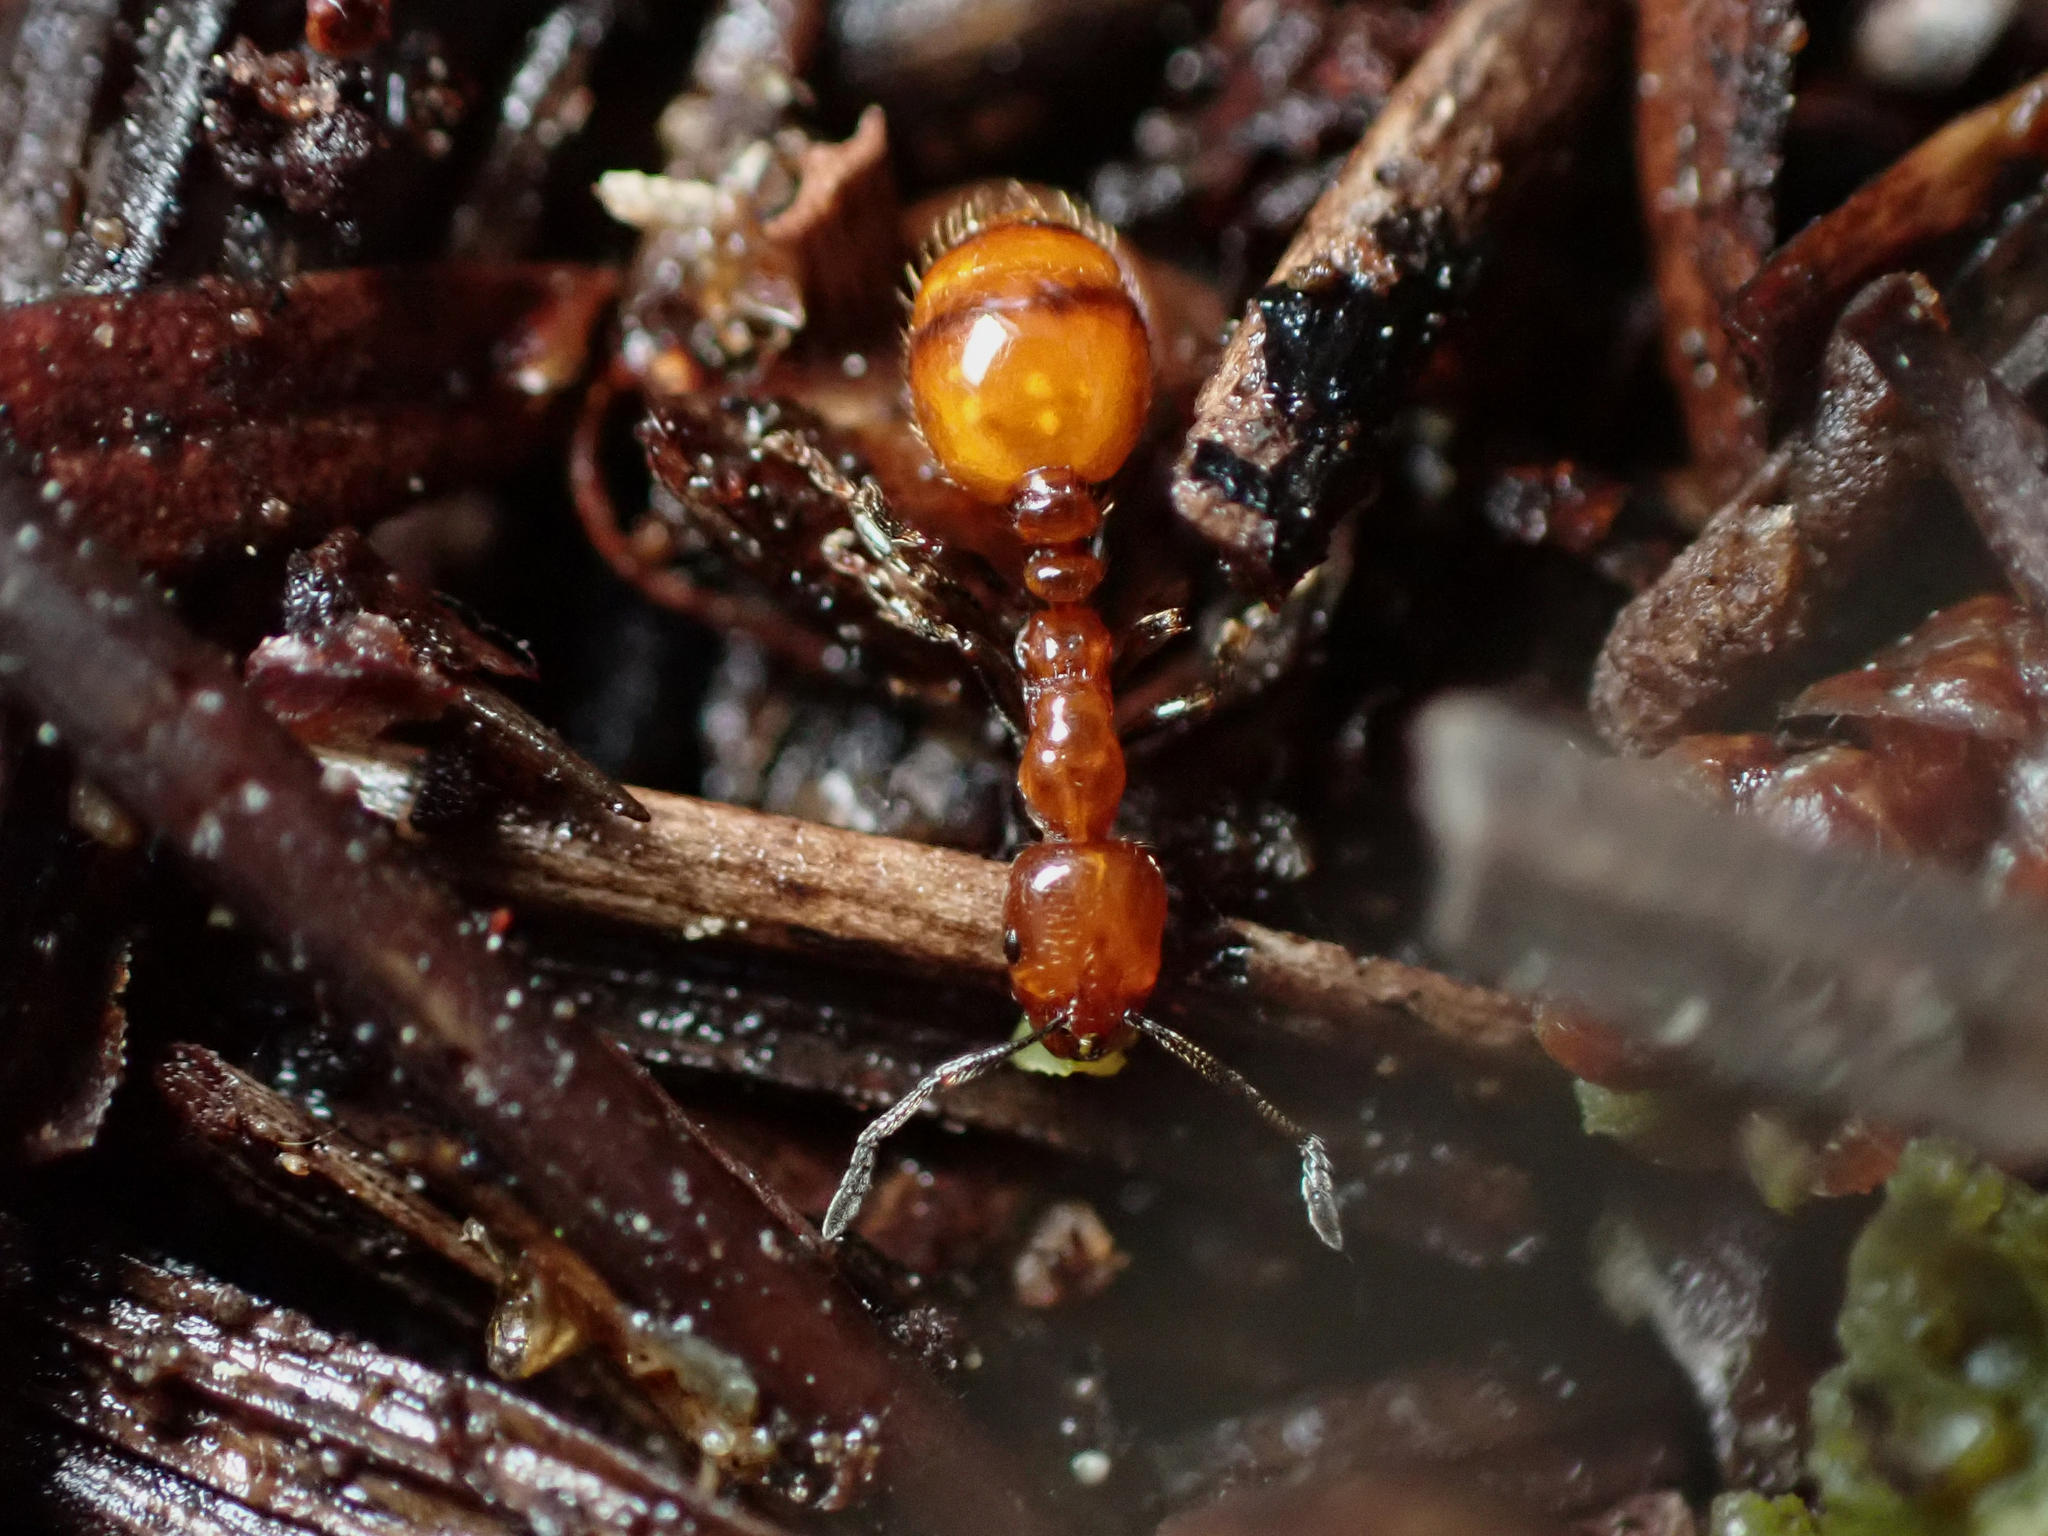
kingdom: Animalia
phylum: Arthropoda
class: Insecta
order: Hymenoptera
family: Formicidae
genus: Monomorium
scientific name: Monomorium antarcticum
